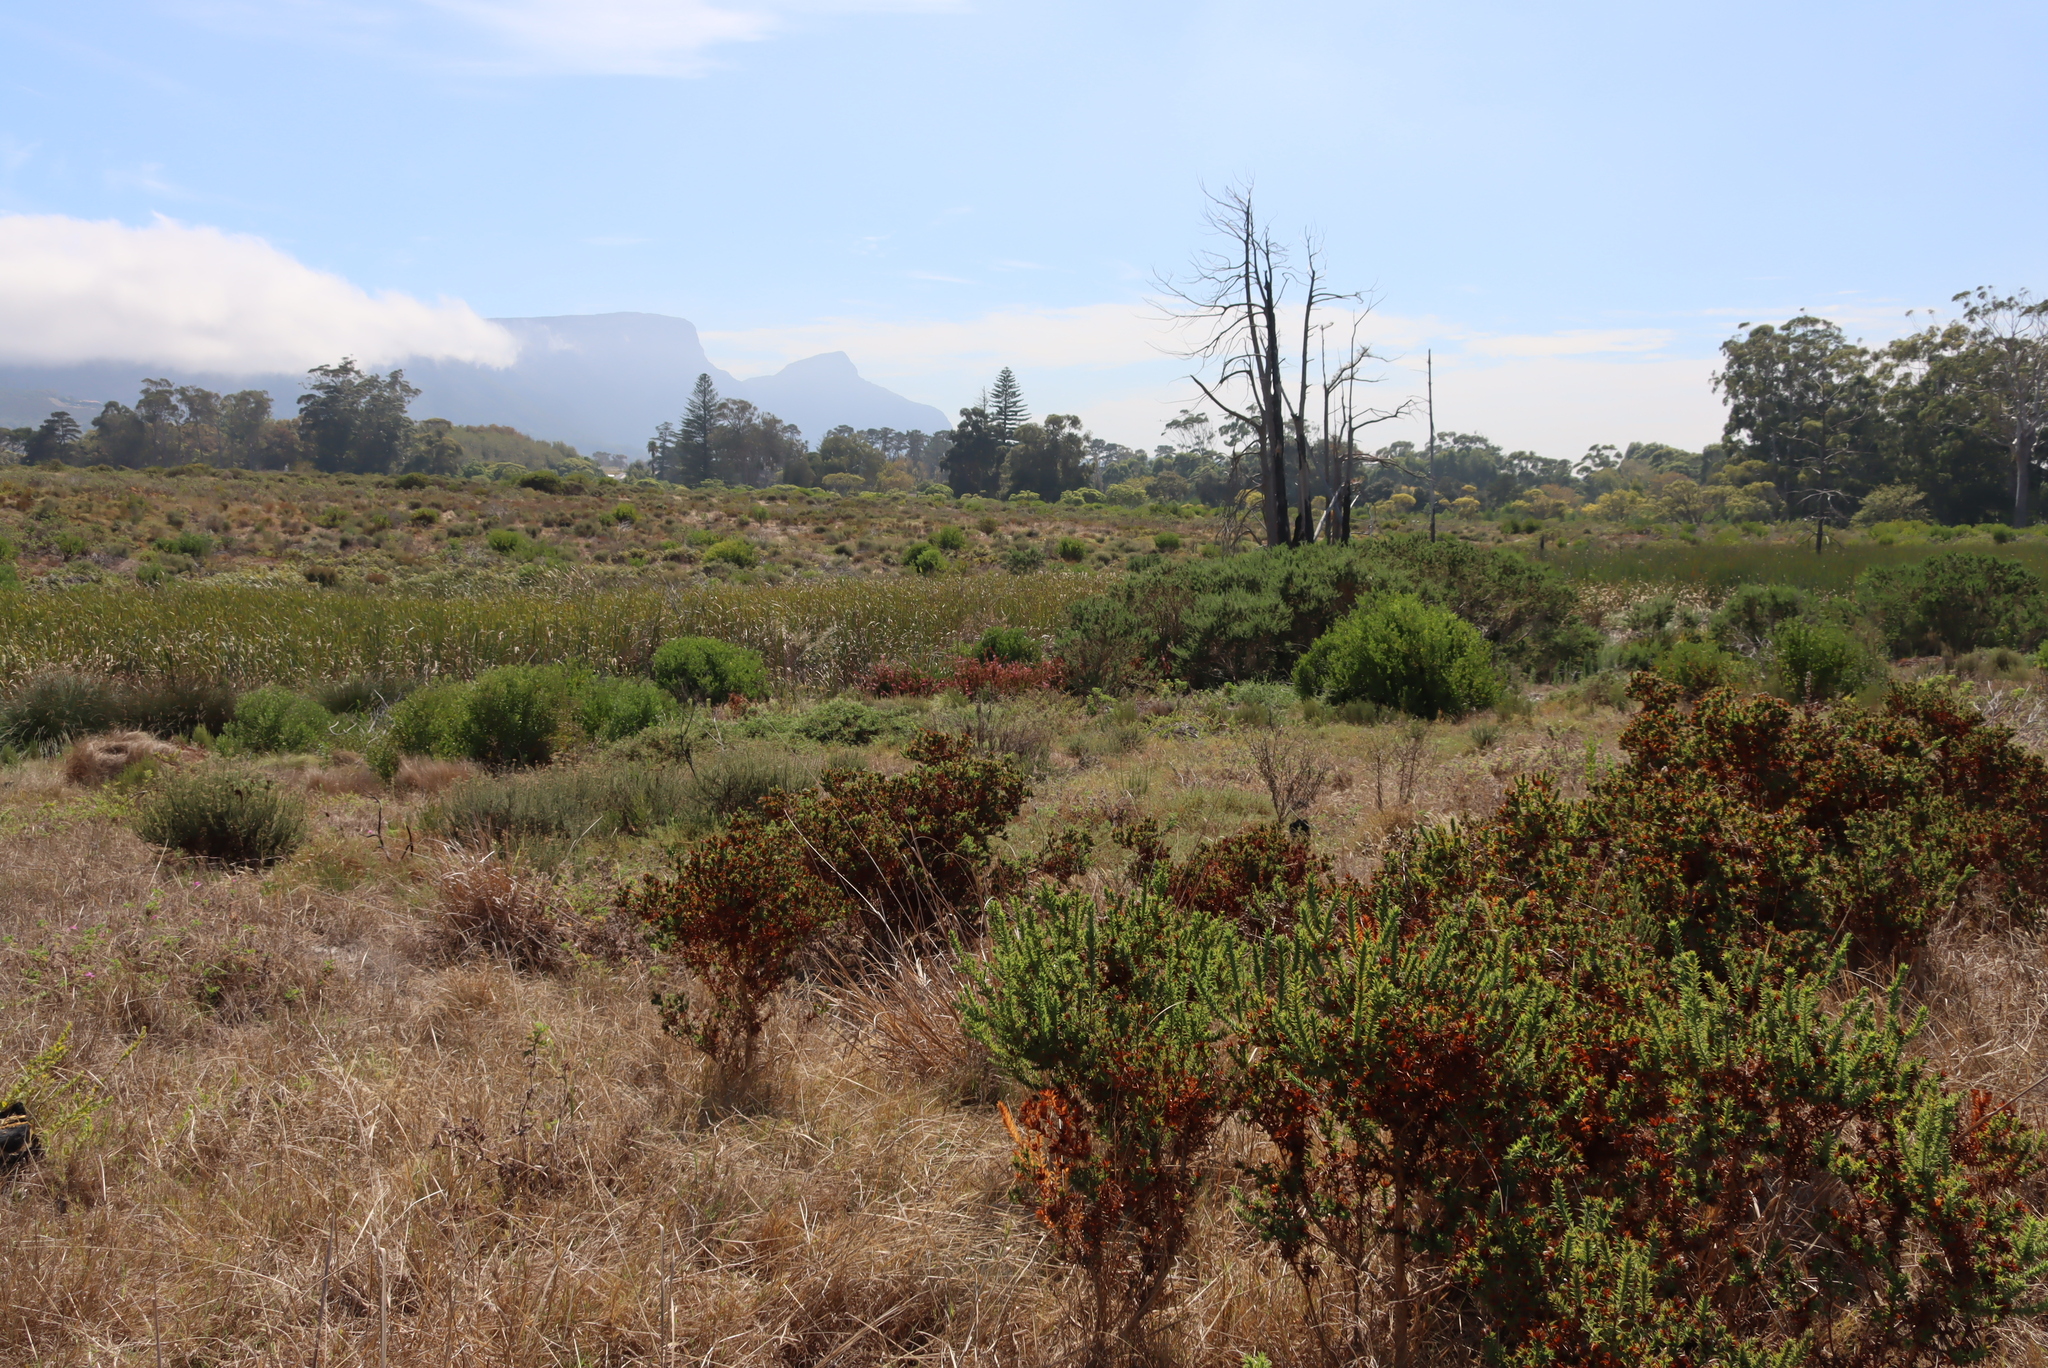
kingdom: Plantae
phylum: Tracheophyta
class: Magnoliopsida
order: Ericales
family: Ericaceae
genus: Erica
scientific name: Erica verticillata
